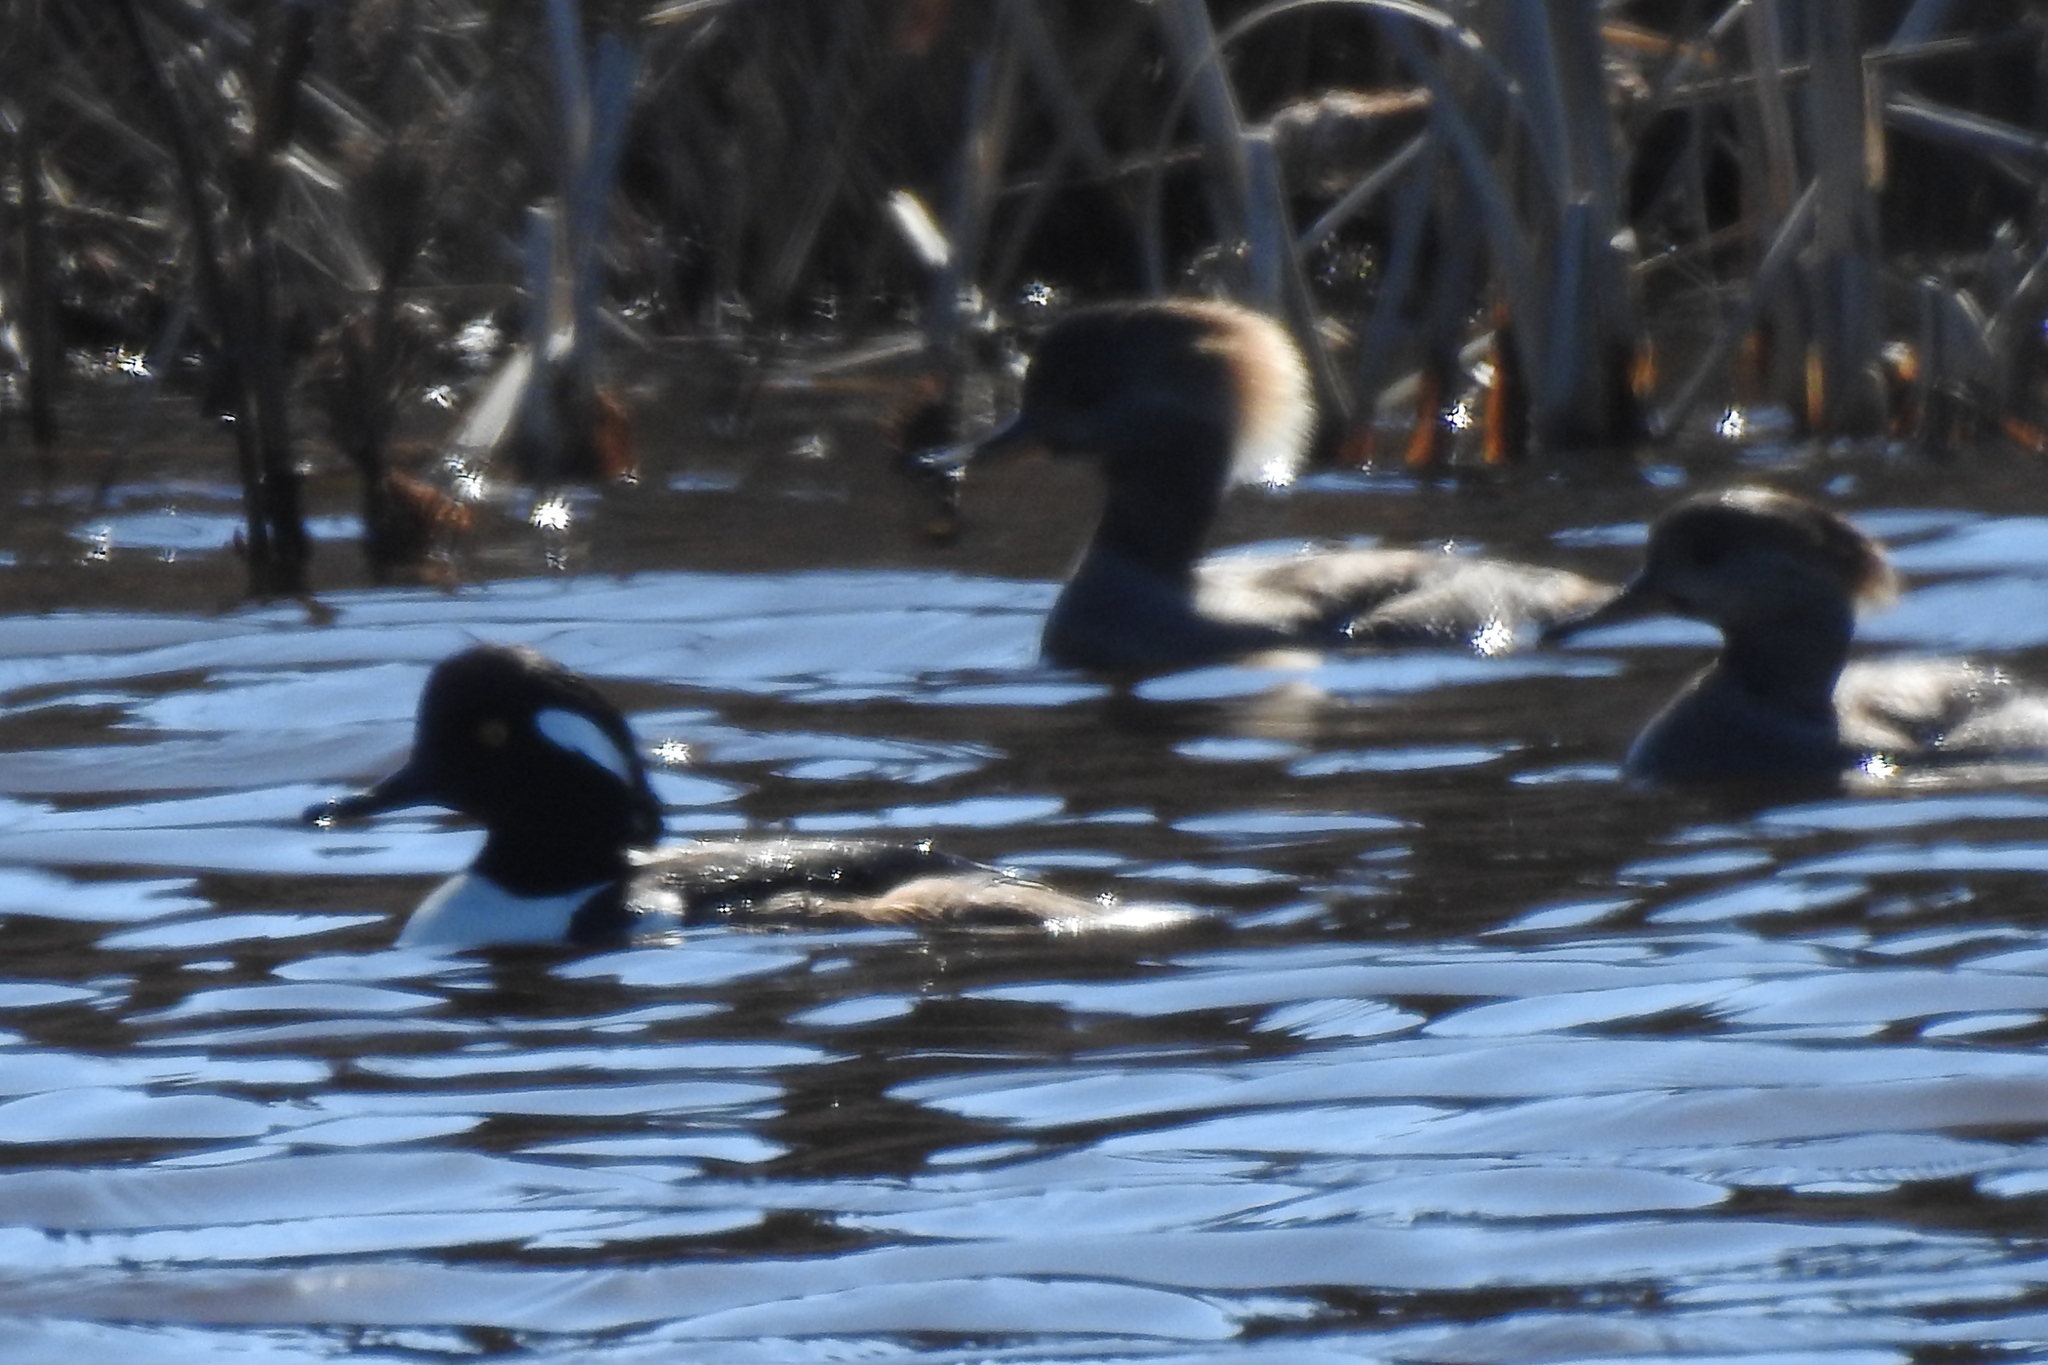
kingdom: Animalia
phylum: Chordata
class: Aves
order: Anseriformes
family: Anatidae
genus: Lophodytes
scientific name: Lophodytes cucullatus
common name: Hooded merganser
